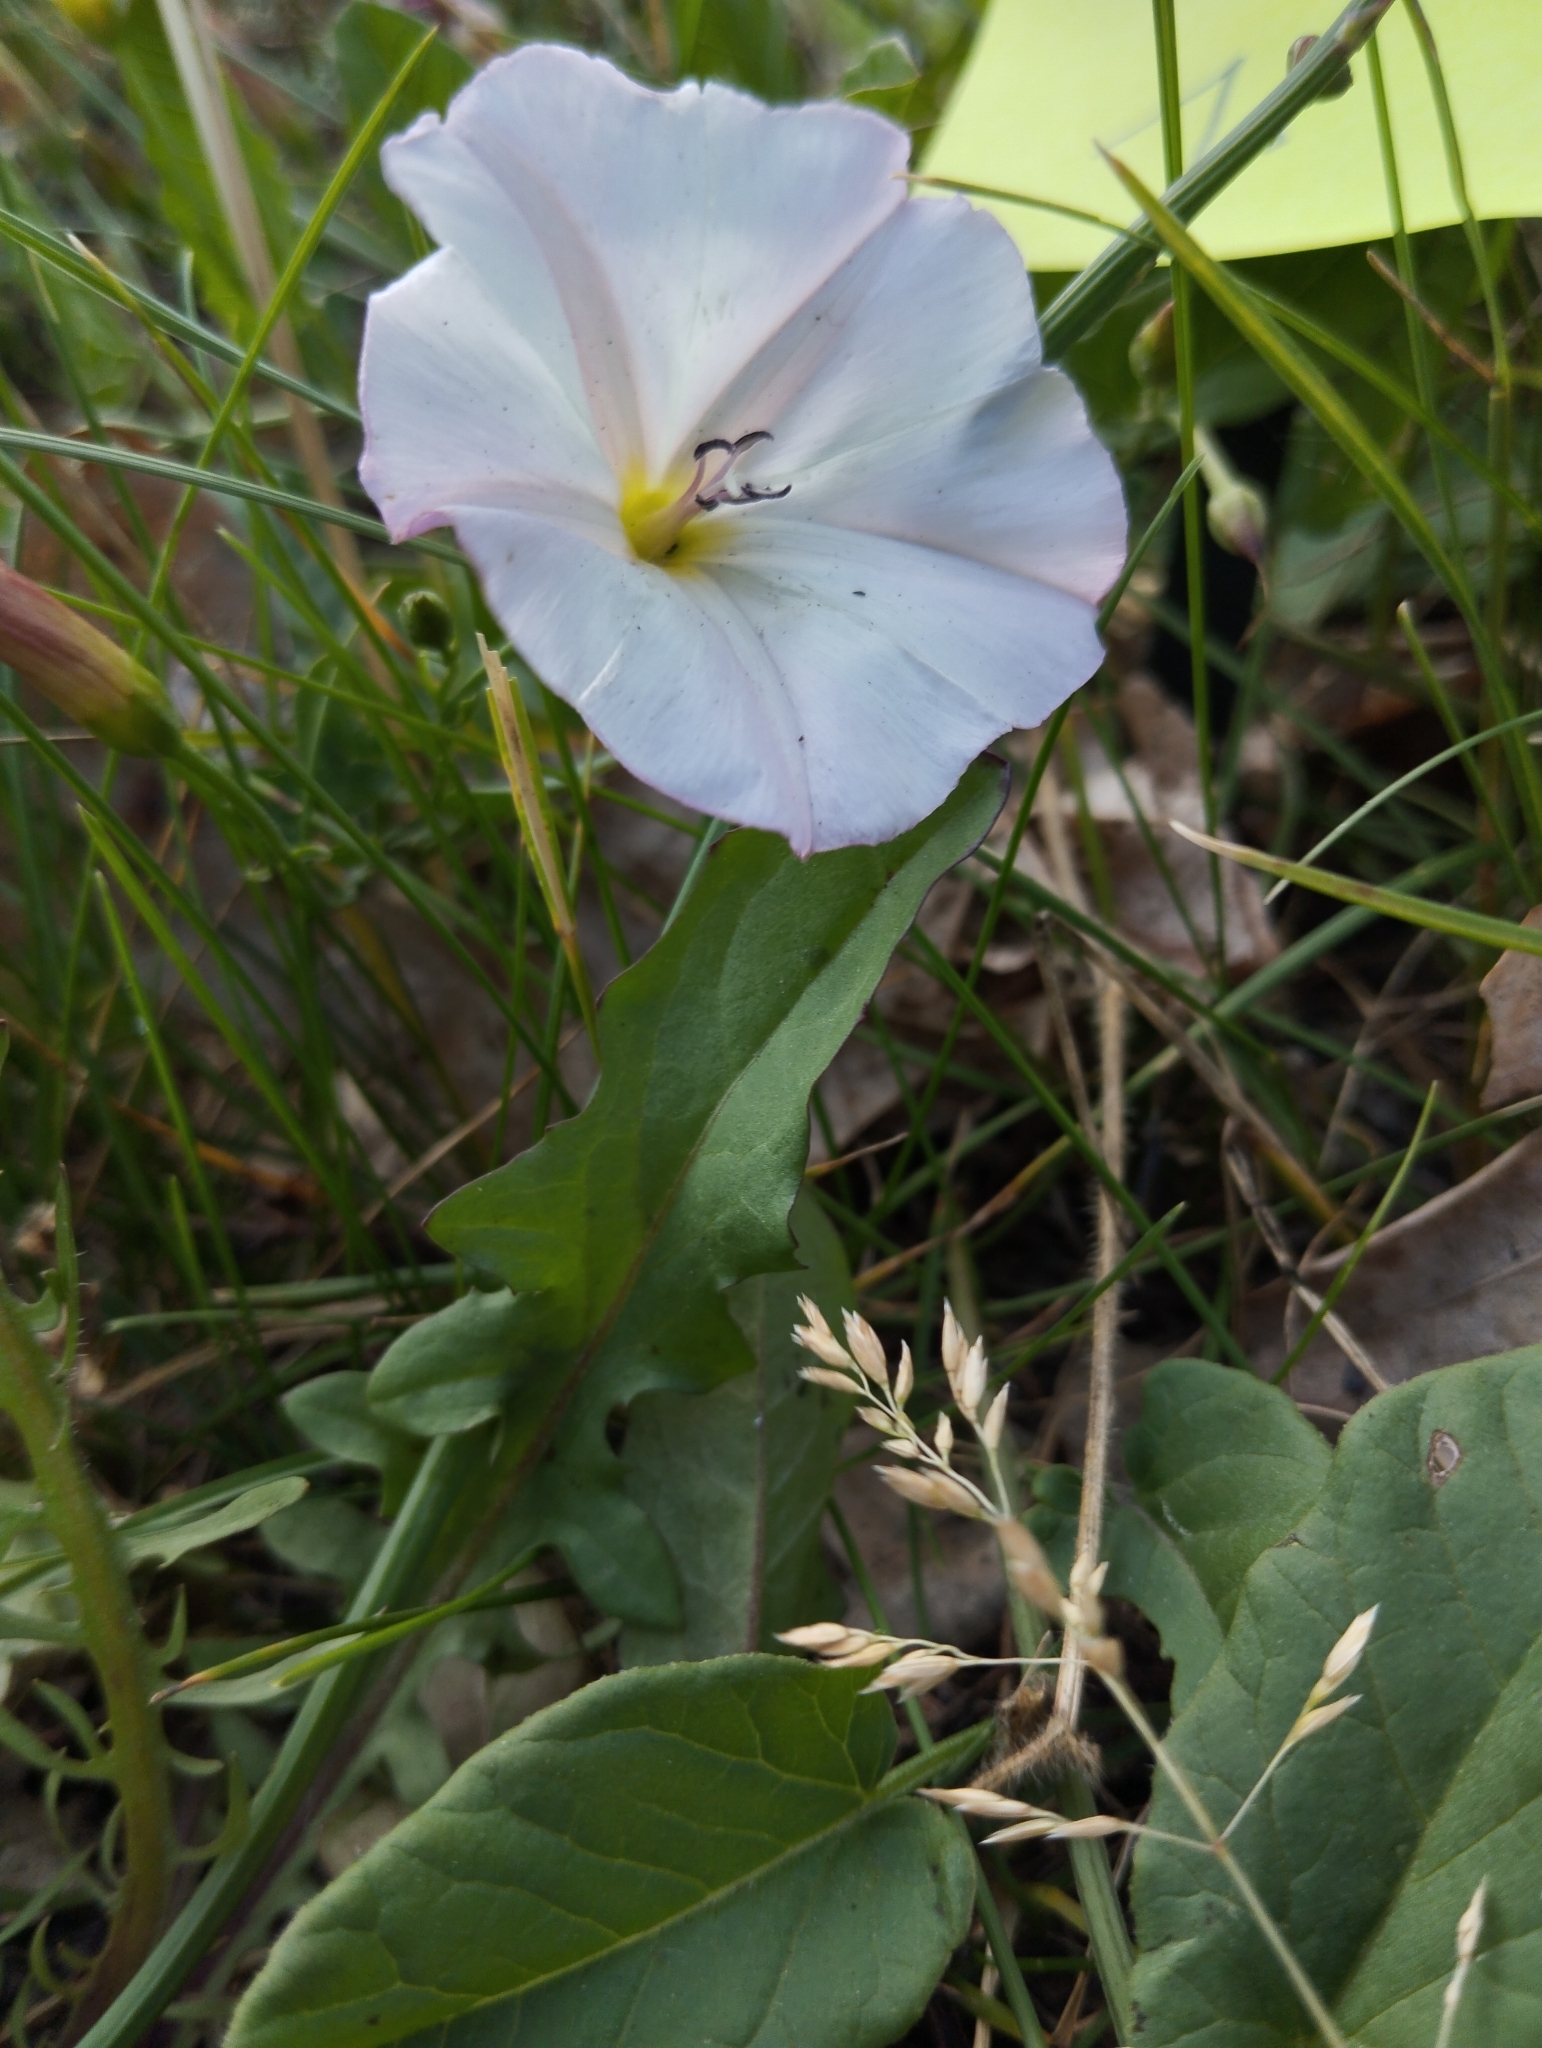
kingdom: Plantae
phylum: Tracheophyta
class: Magnoliopsida
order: Solanales
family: Convolvulaceae
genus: Convolvulus
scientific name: Convolvulus arvensis
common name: Field bindweed
